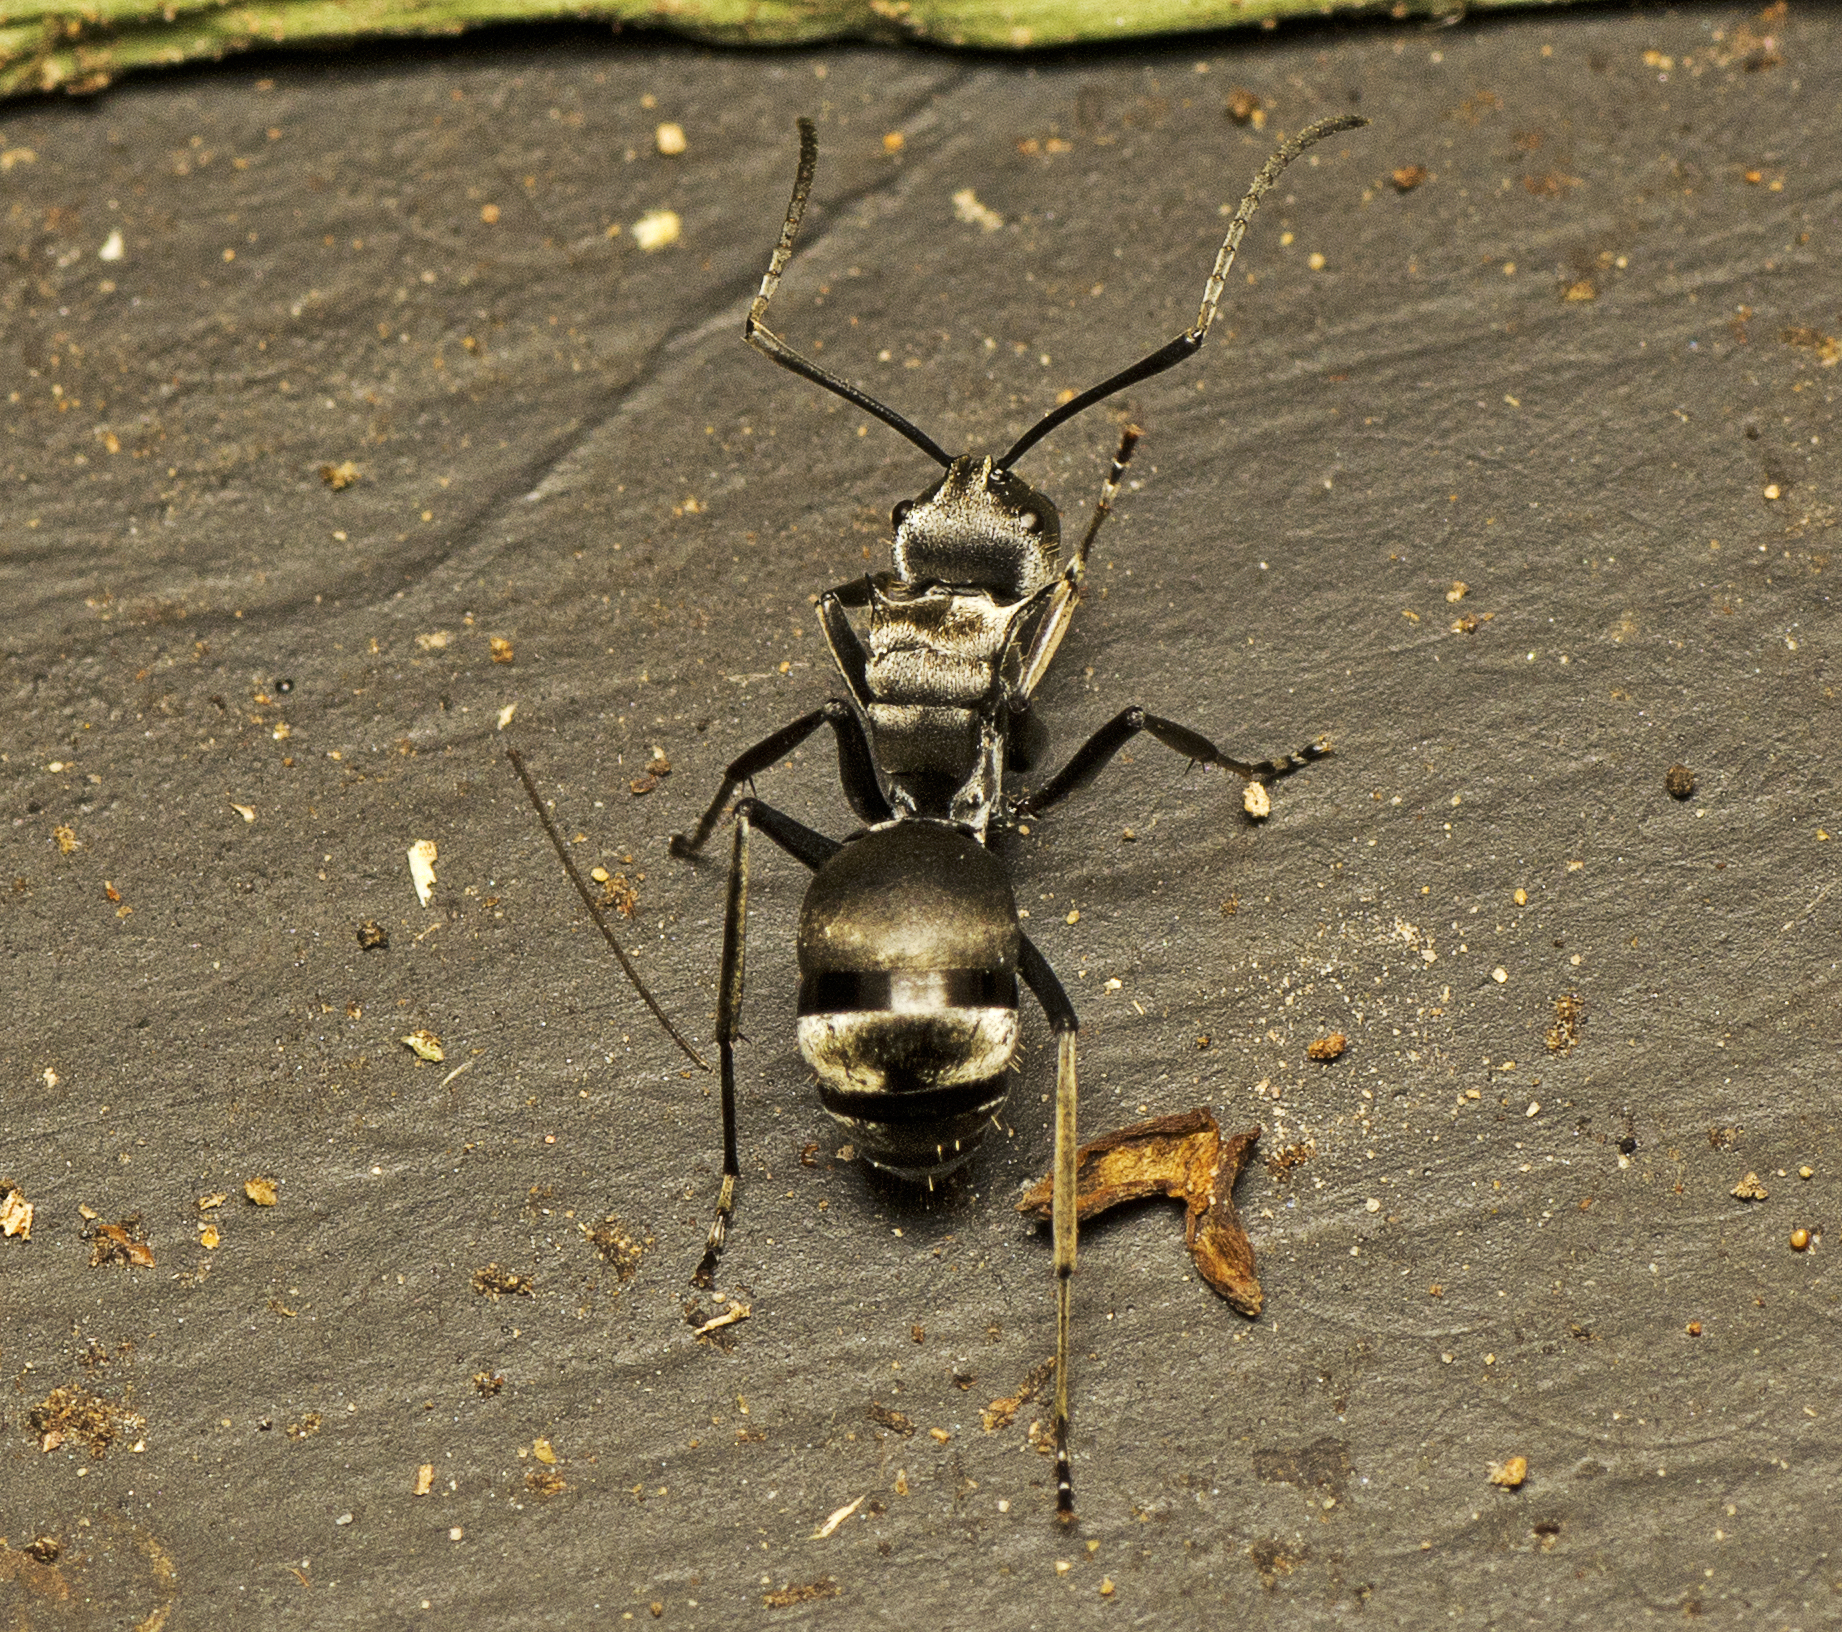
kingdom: Animalia
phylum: Arthropoda
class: Insecta
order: Hymenoptera
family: Formicidae
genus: Polyrhachis
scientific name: Polyrhachis foreli
